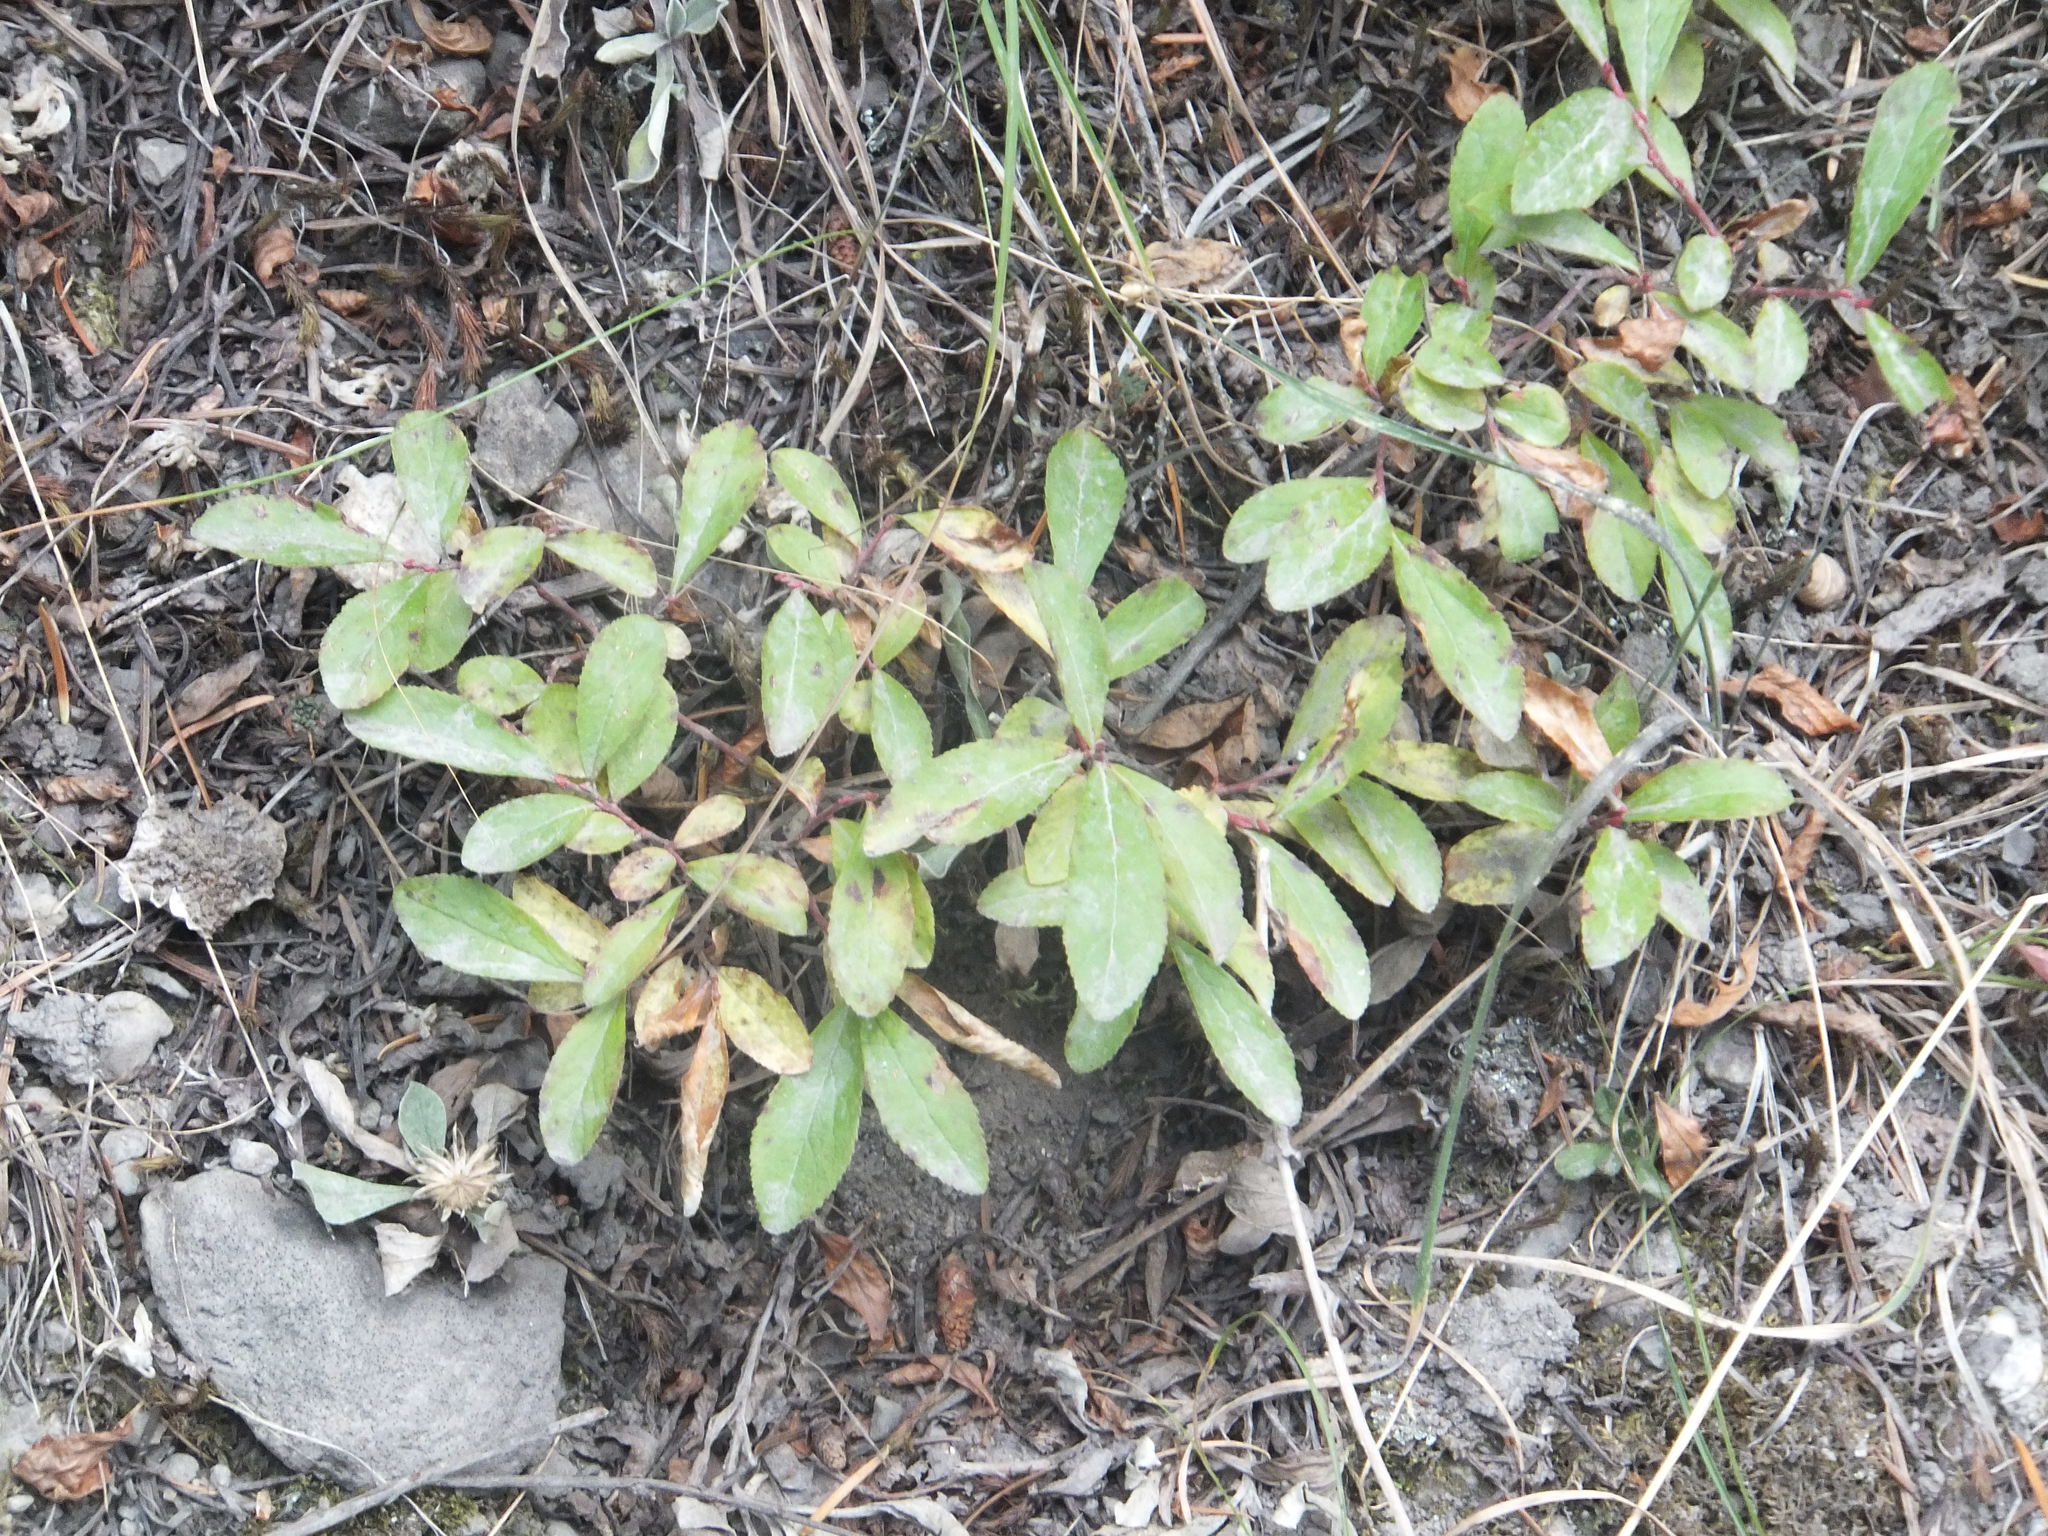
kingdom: Plantae
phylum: Tracheophyta
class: Magnoliopsida
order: Ericales
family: Ericaceae
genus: Vaccinium
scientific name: Vaccinium cespitosum
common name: Dwarf bilberry
